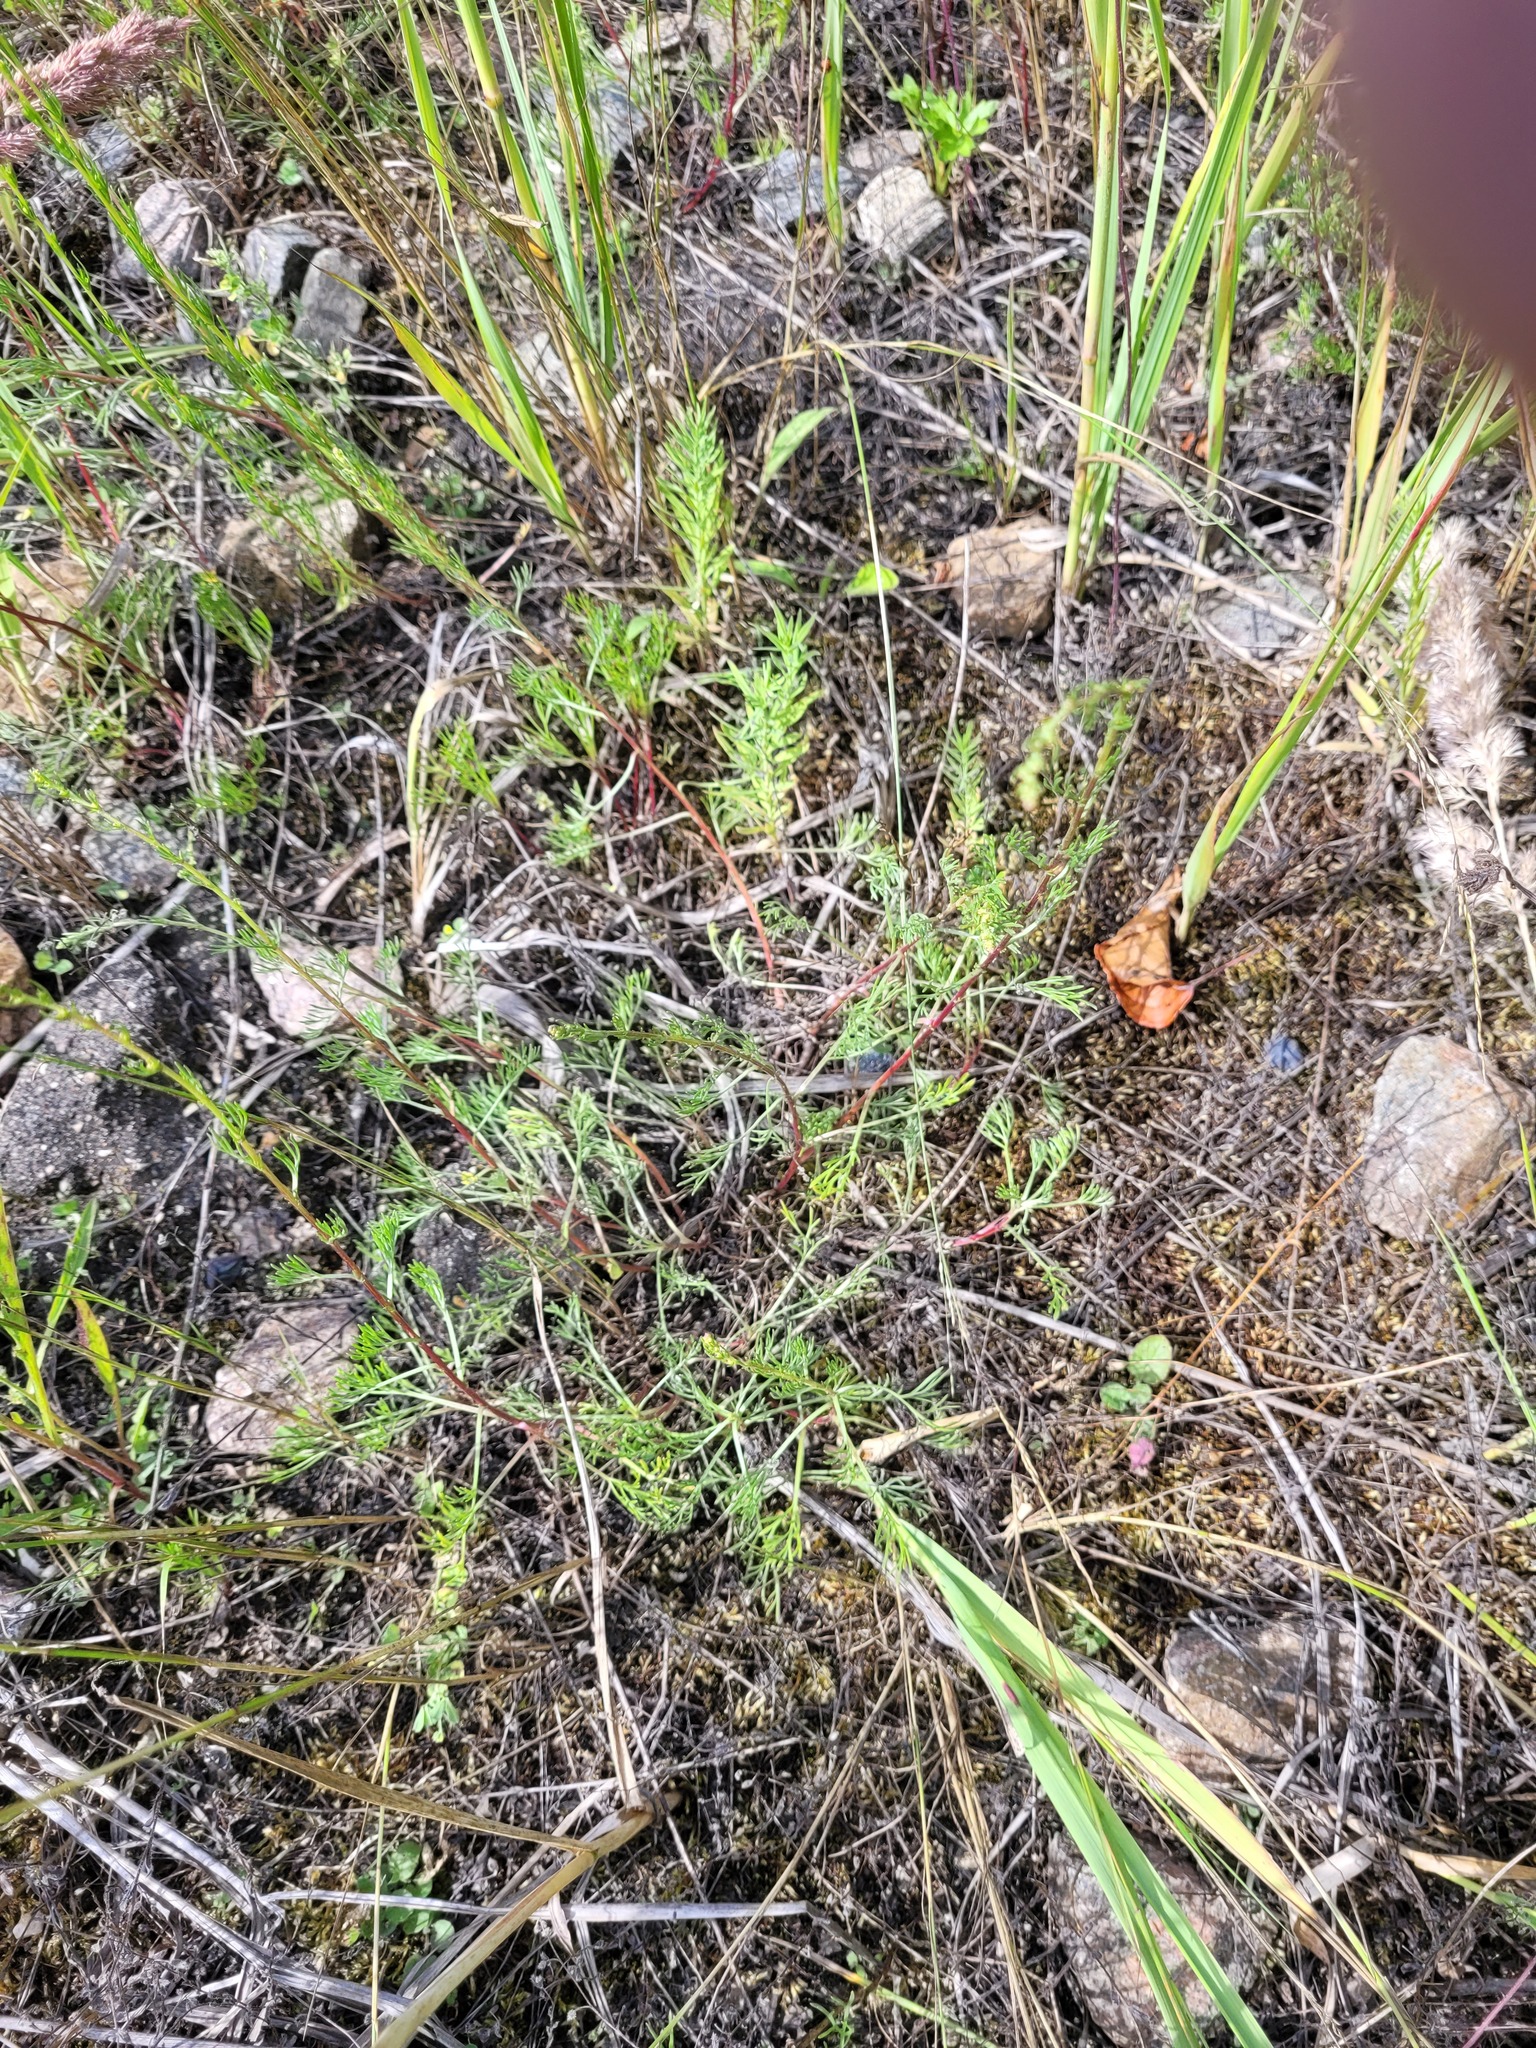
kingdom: Plantae
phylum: Tracheophyta
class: Magnoliopsida
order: Asterales
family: Asteraceae
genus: Artemisia
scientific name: Artemisia campestris
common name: Field wormwood
